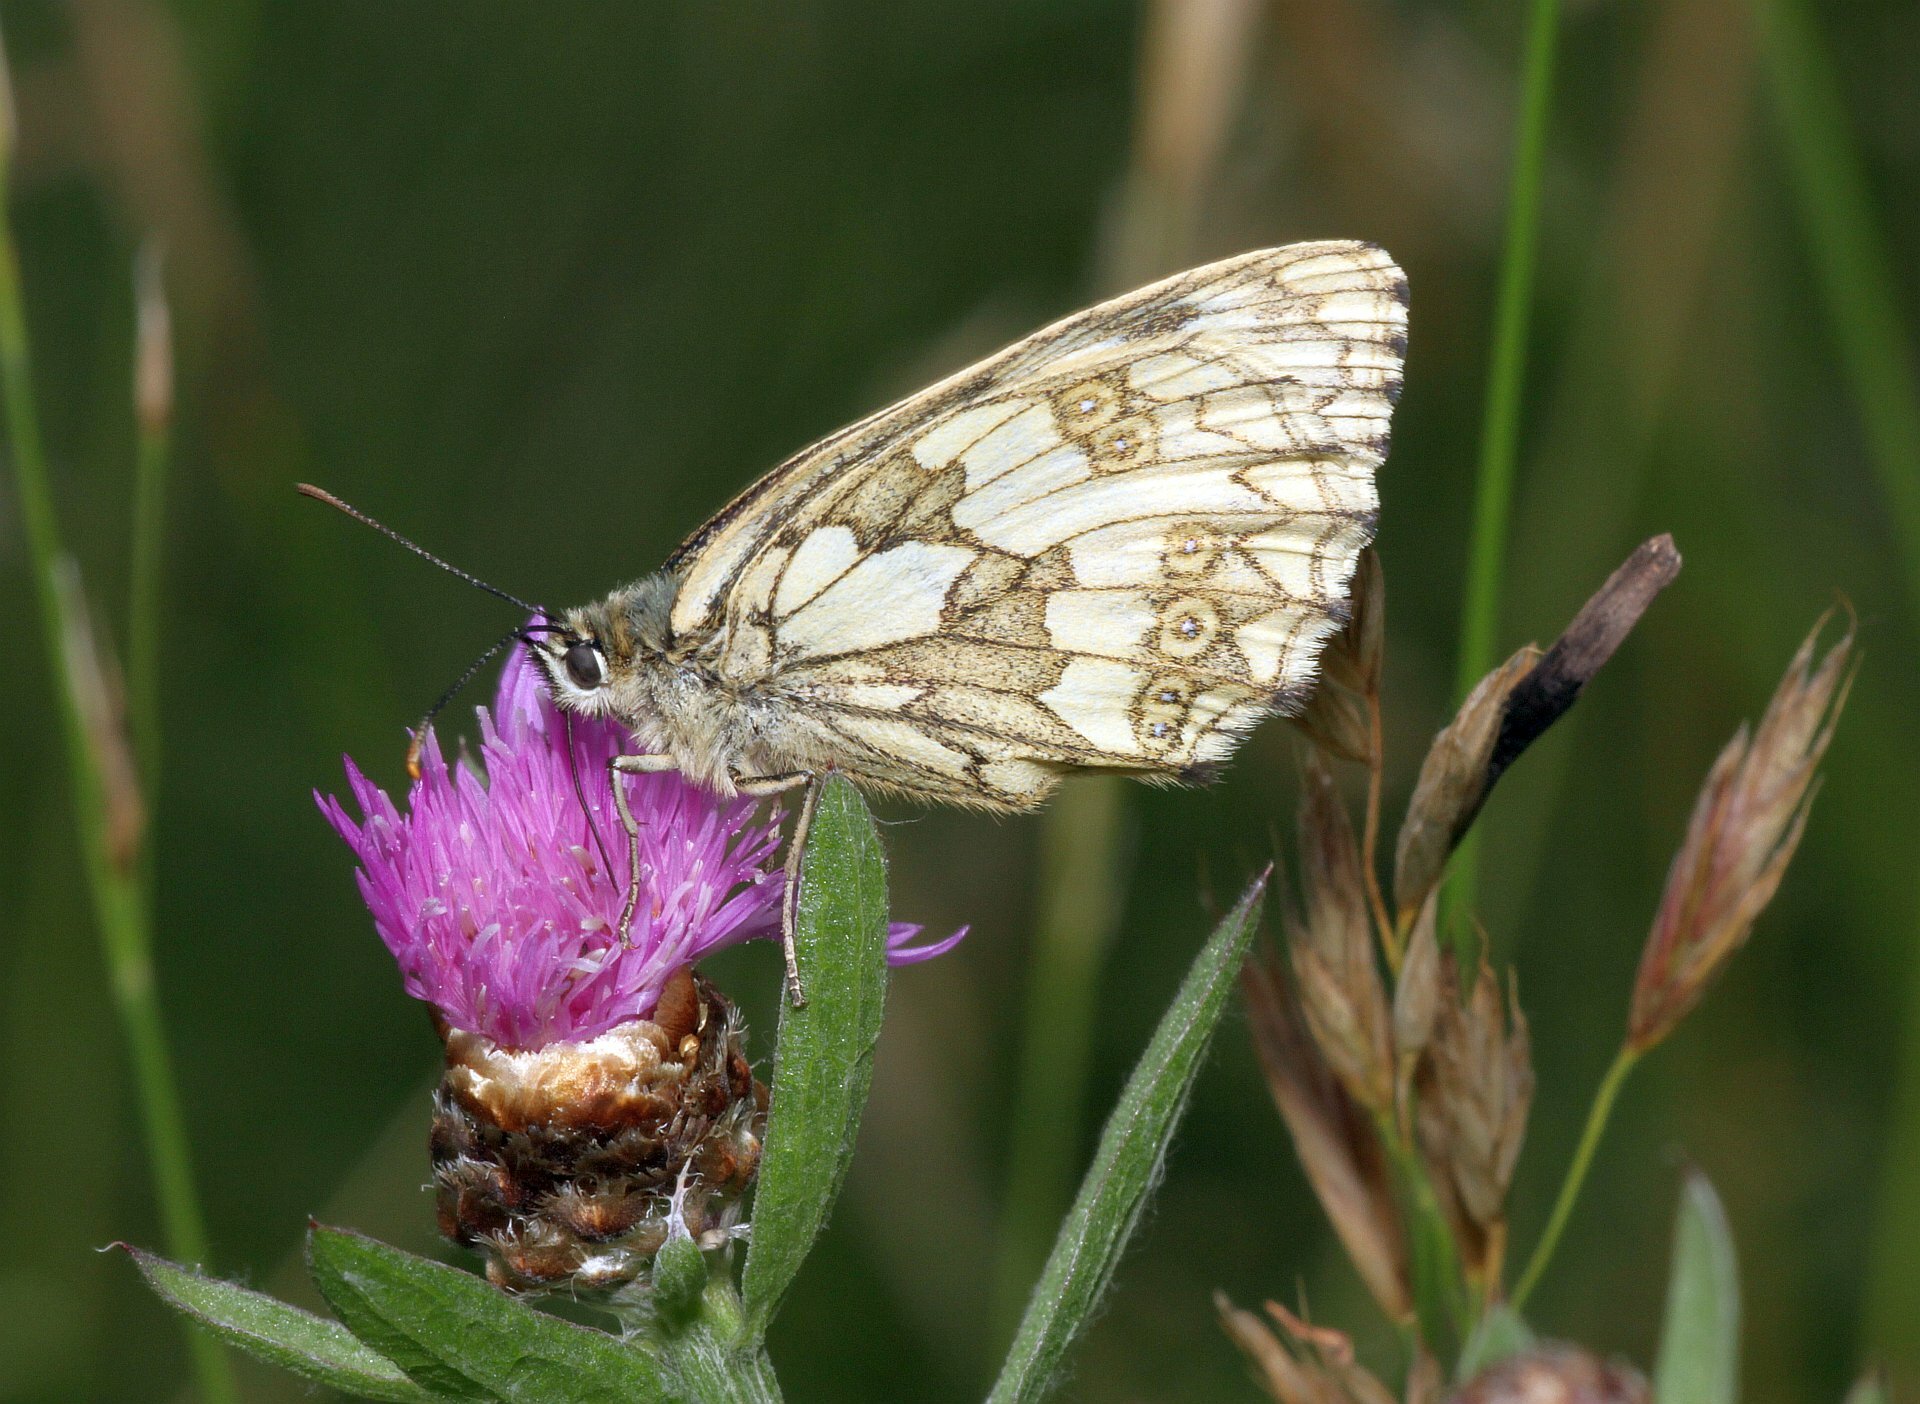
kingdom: Animalia
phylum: Arthropoda
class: Insecta
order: Lepidoptera
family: Nymphalidae
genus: Melanargia
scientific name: Melanargia galathea
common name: Marbled white
